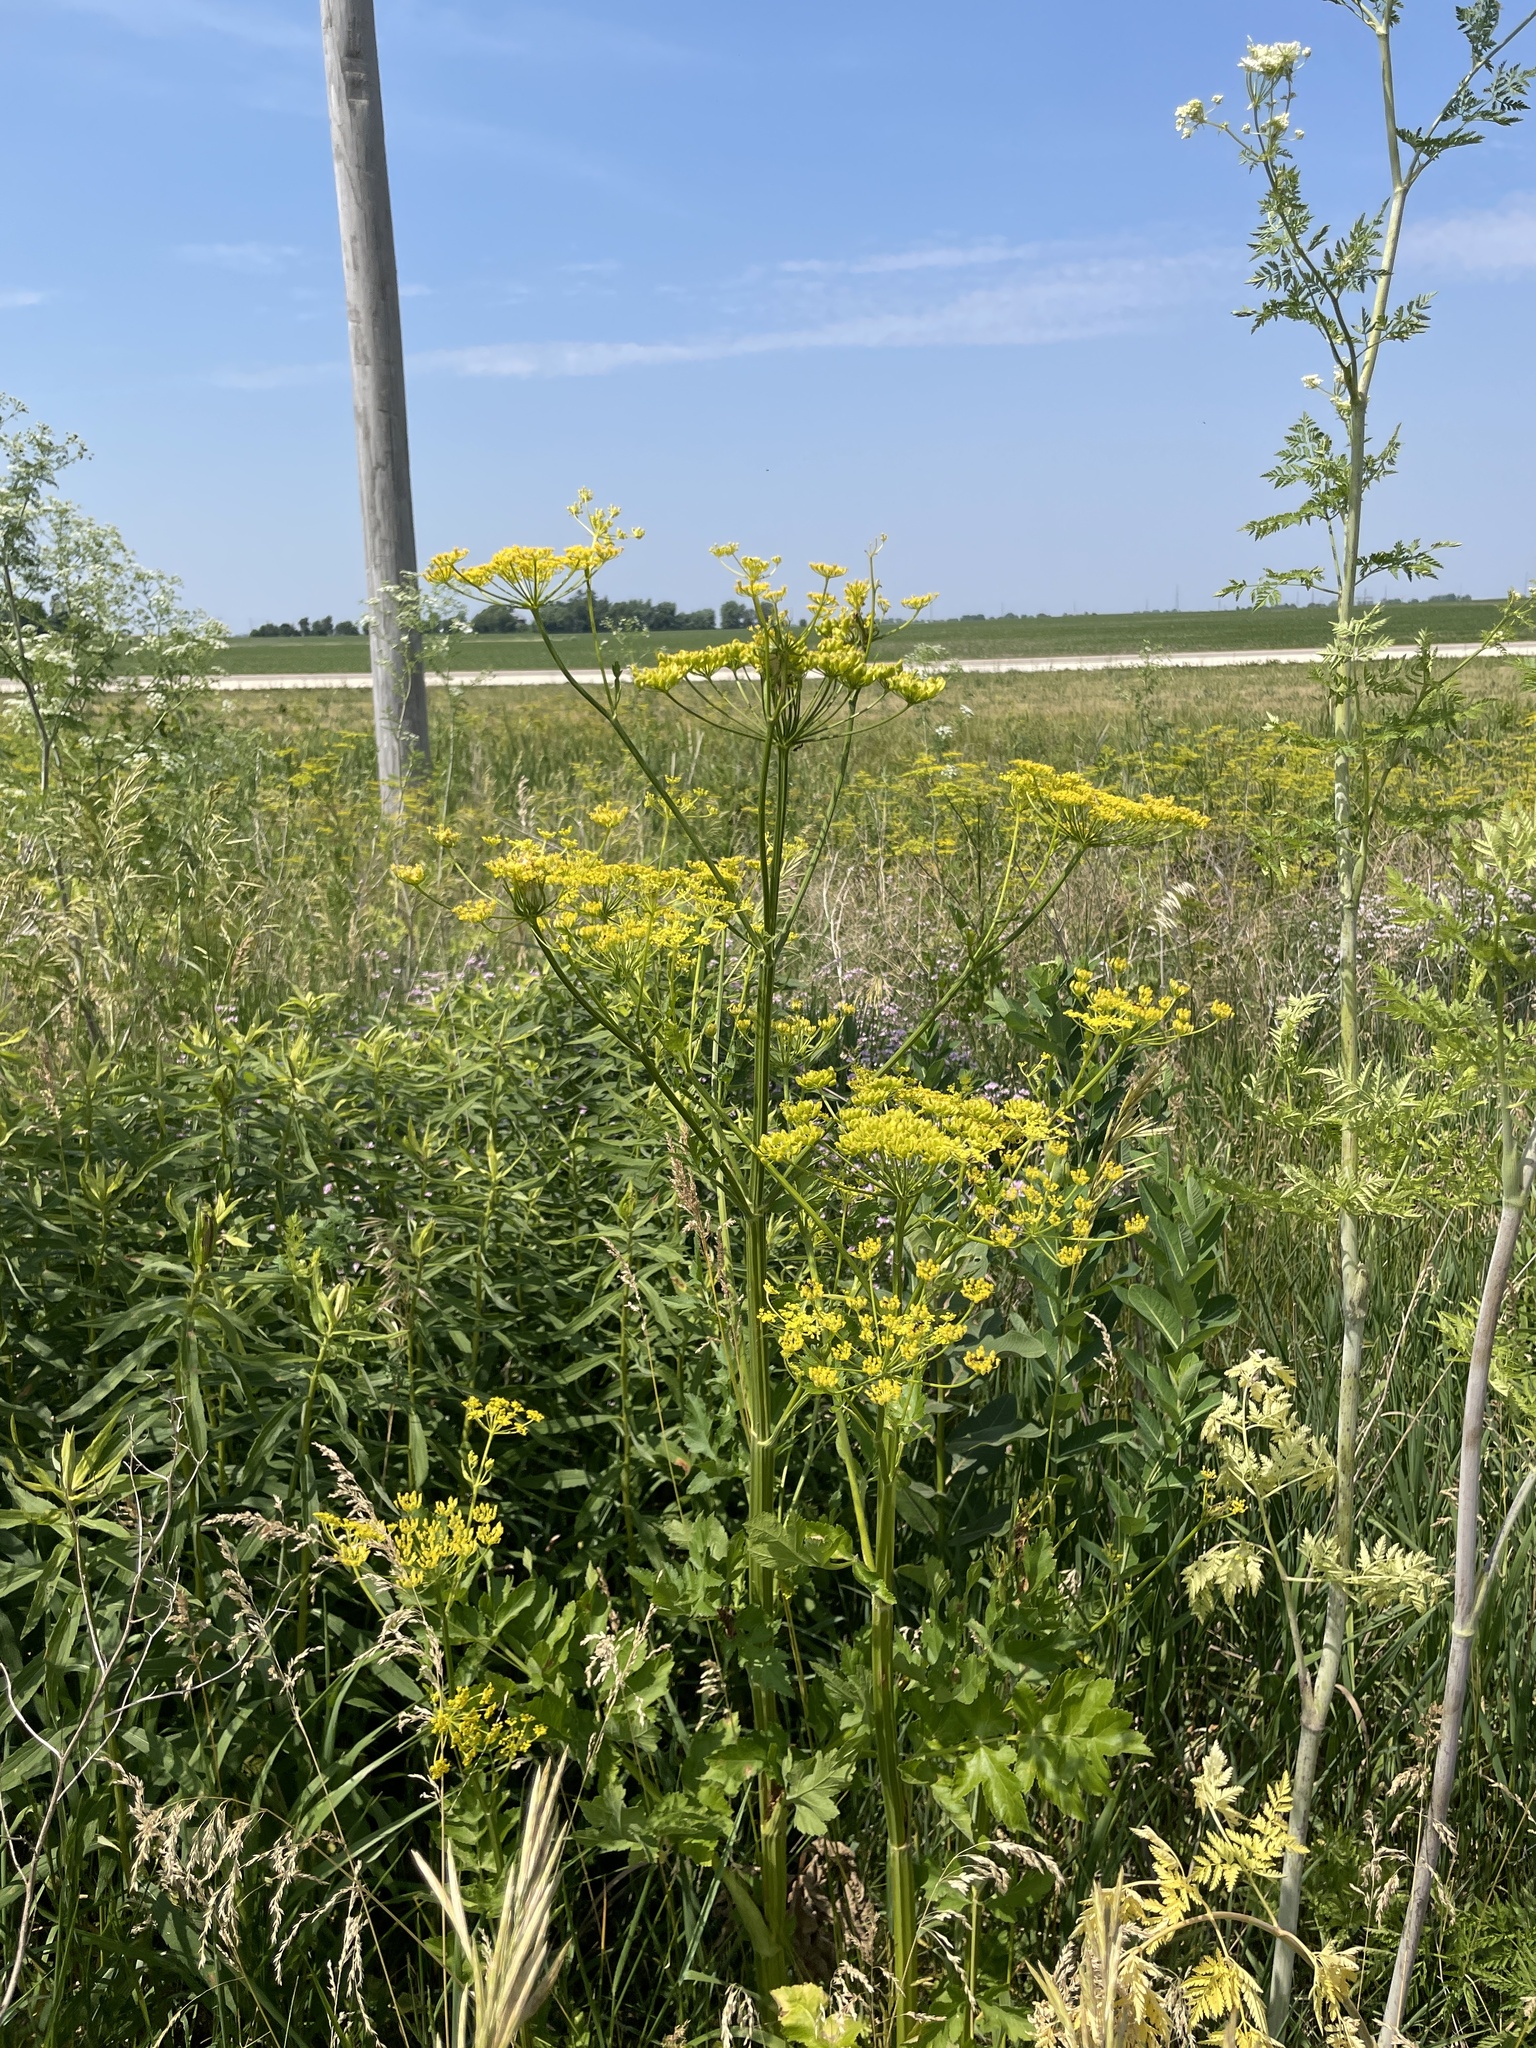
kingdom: Plantae
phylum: Tracheophyta
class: Magnoliopsida
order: Apiales
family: Apiaceae
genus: Pastinaca
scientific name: Pastinaca sativa
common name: Wild parsnip
